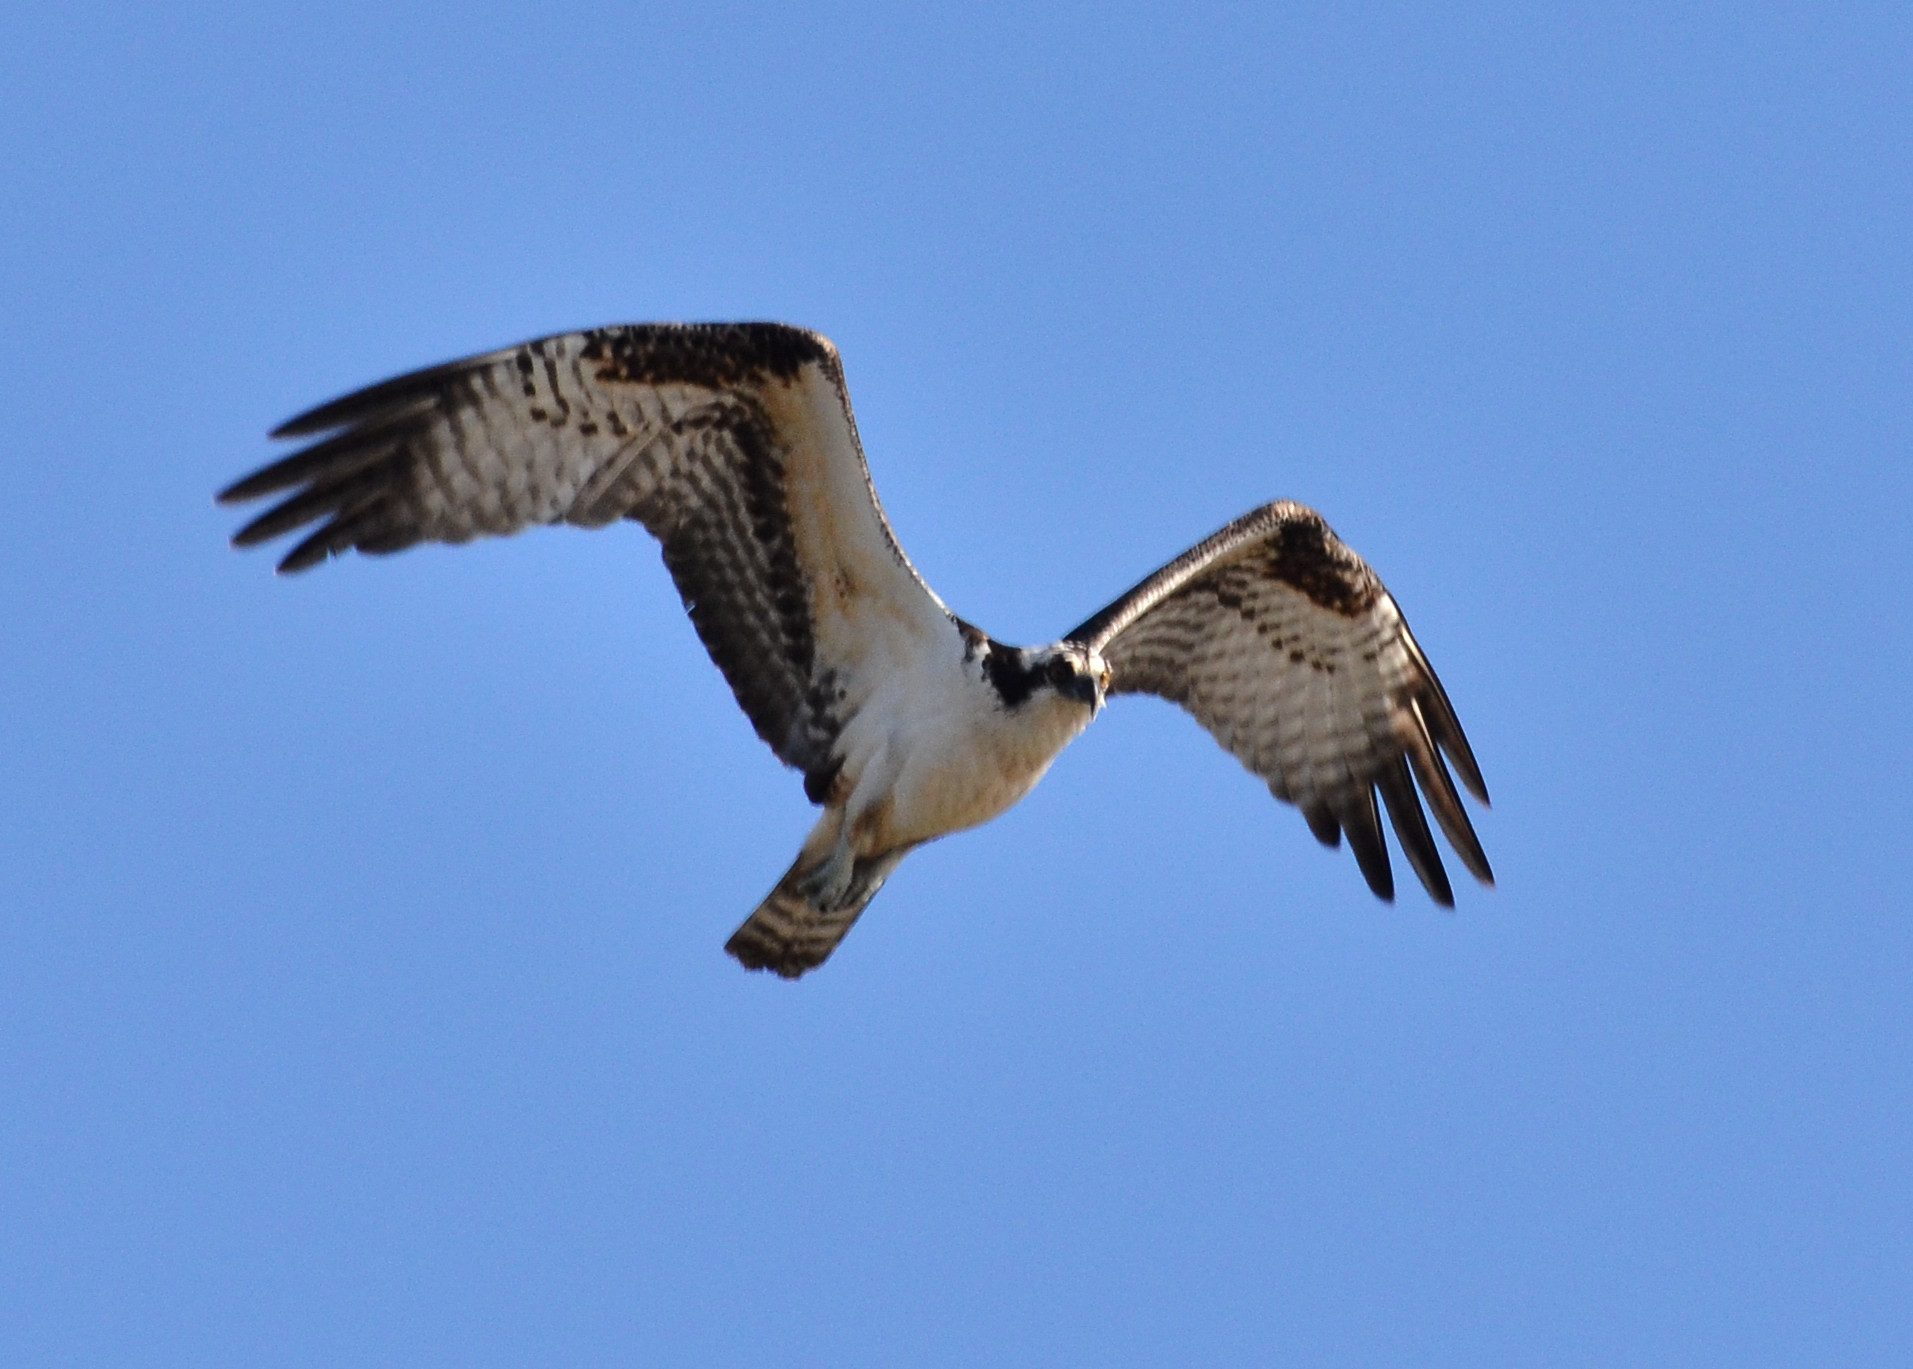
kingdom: Animalia
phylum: Chordata
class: Aves
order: Accipitriformes
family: Pandionidae
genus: Pandion
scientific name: Pandion haliaetus
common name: Osprey
